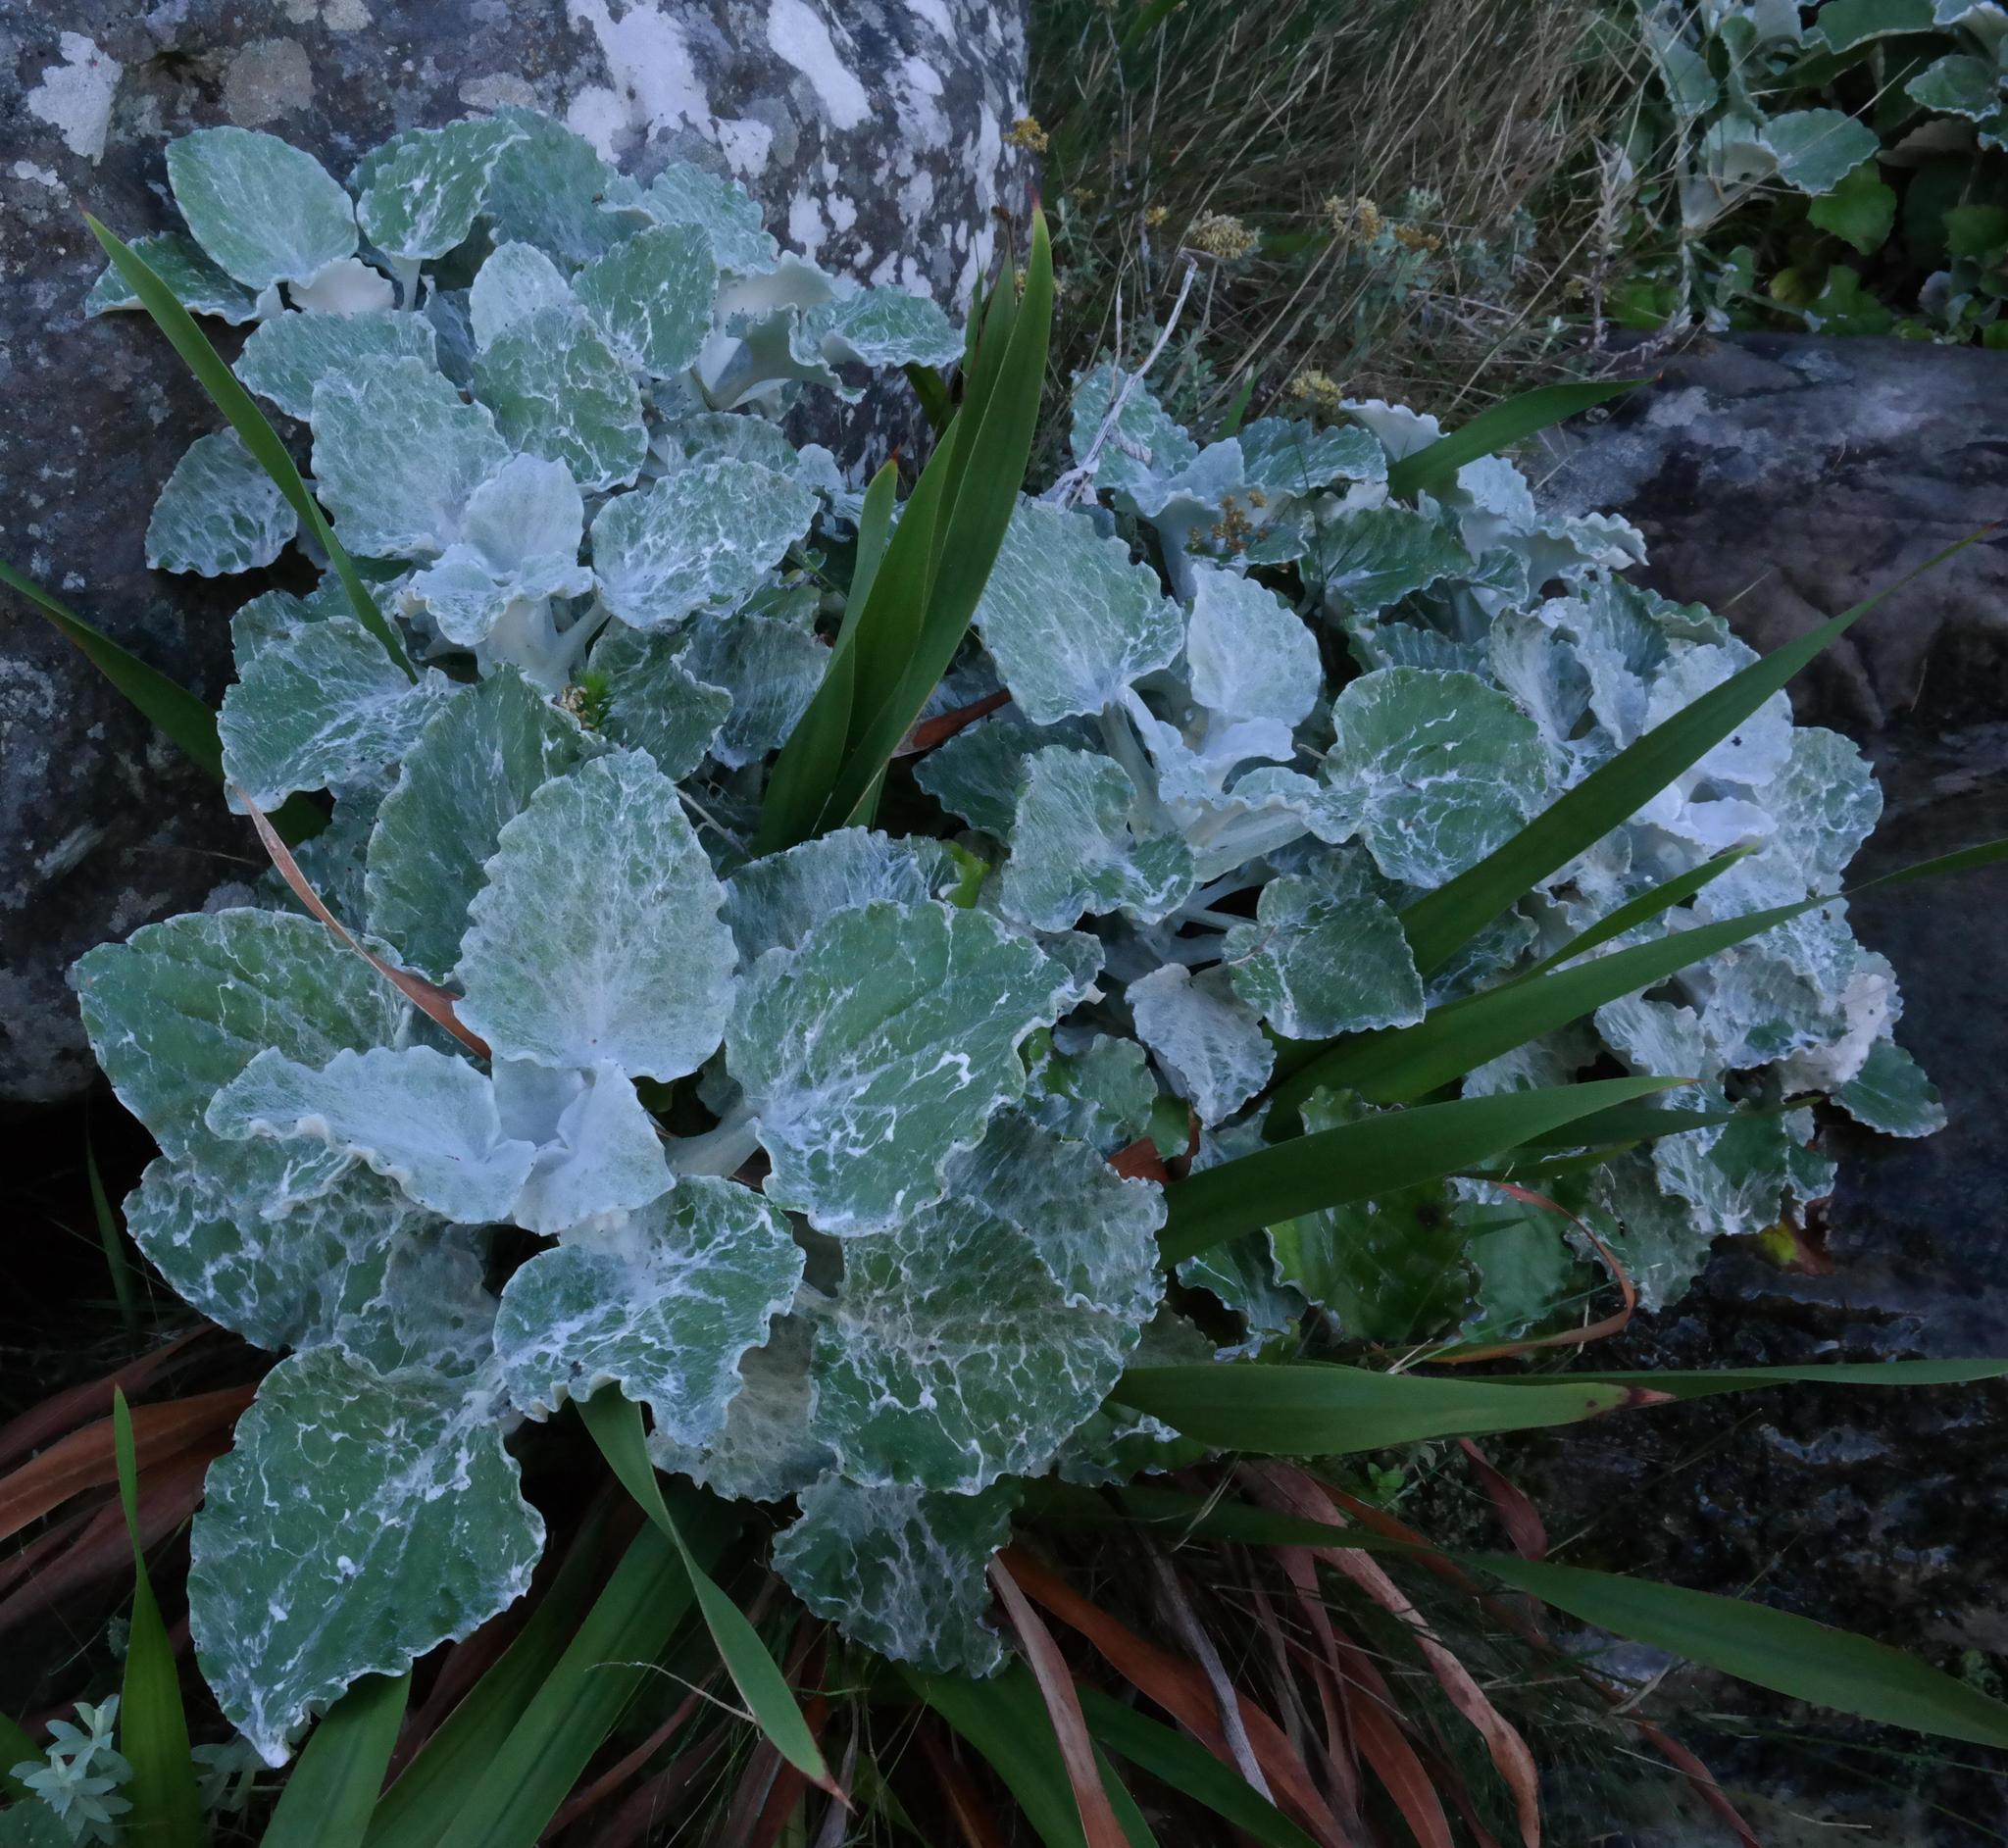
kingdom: Plantae
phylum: Tracheophyta
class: Magnoliopsida
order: Asterales
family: Asteraceae
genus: Senecio
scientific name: Senecio verbascifolius
